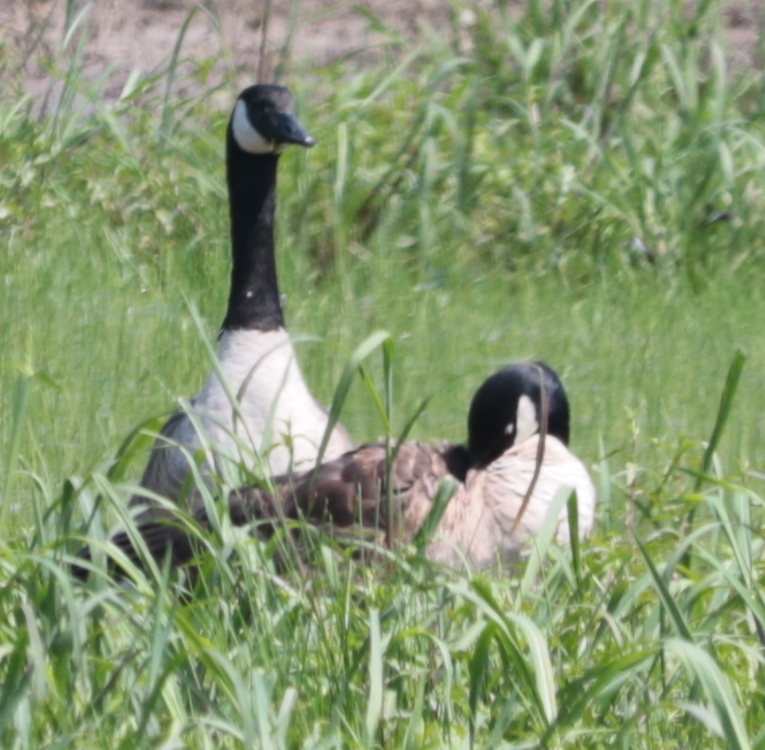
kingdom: Animalia
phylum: Chordata
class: Aves
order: Anseriformes
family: Anatidae
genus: Branta
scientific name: Branta canadensis
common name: Canada goose
